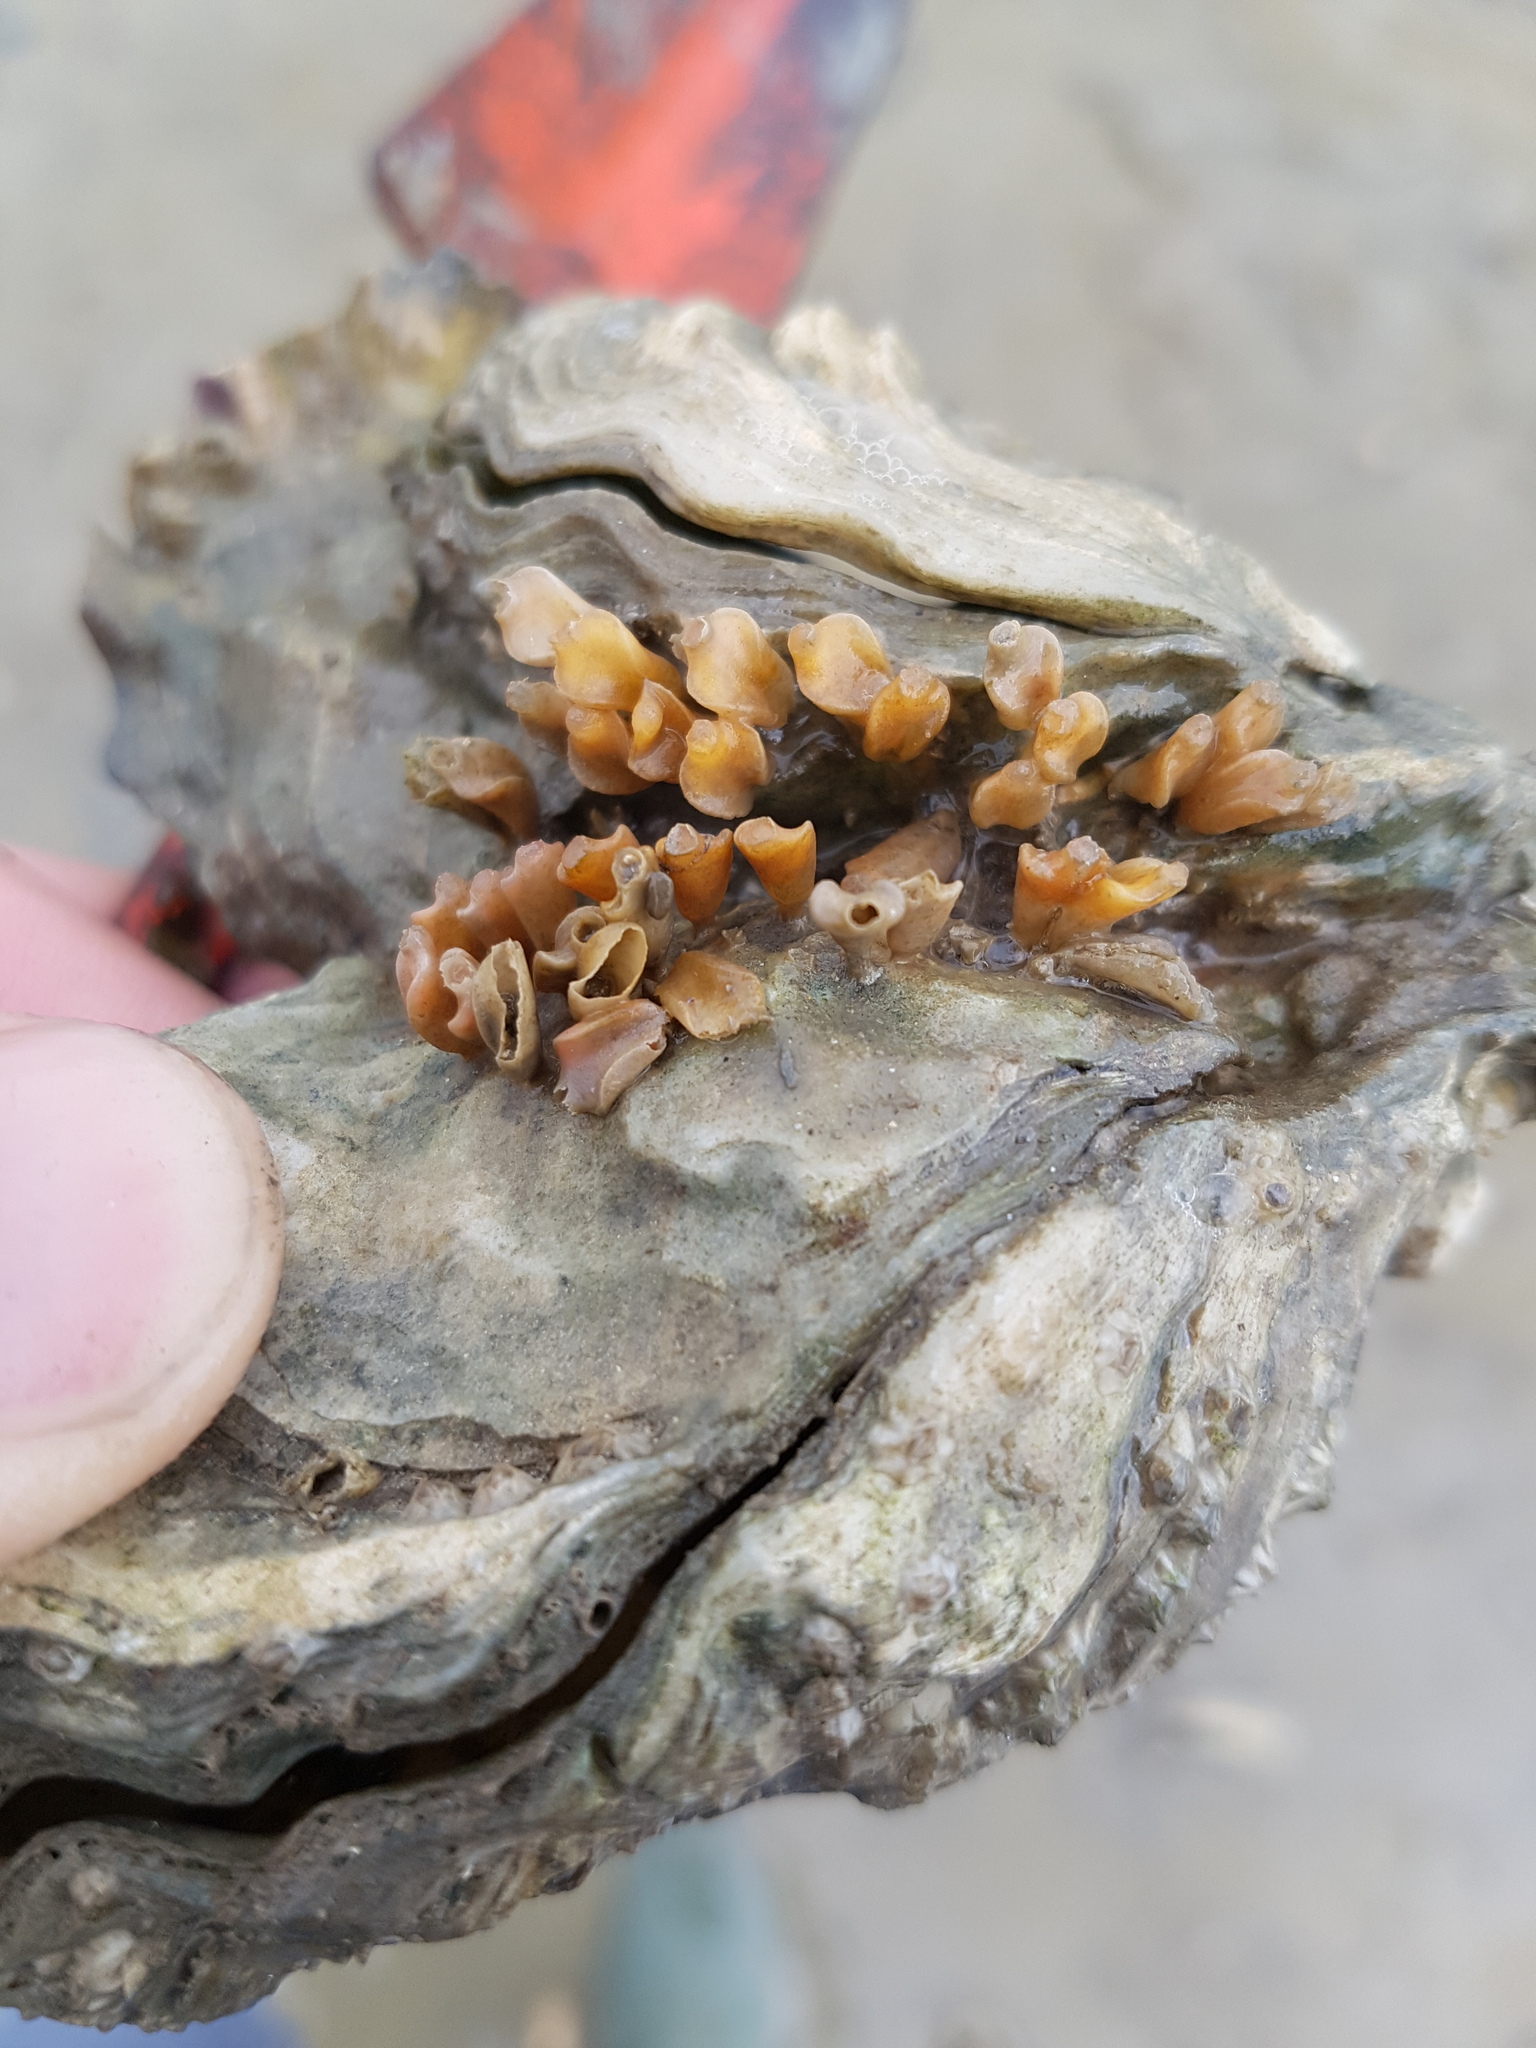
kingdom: Animalia
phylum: Mollusca
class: Gastropoda
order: Neogastropoda
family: Muricidae
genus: Ocinebrellus
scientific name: Ocinebrellus inornatus
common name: Asian drill snail
